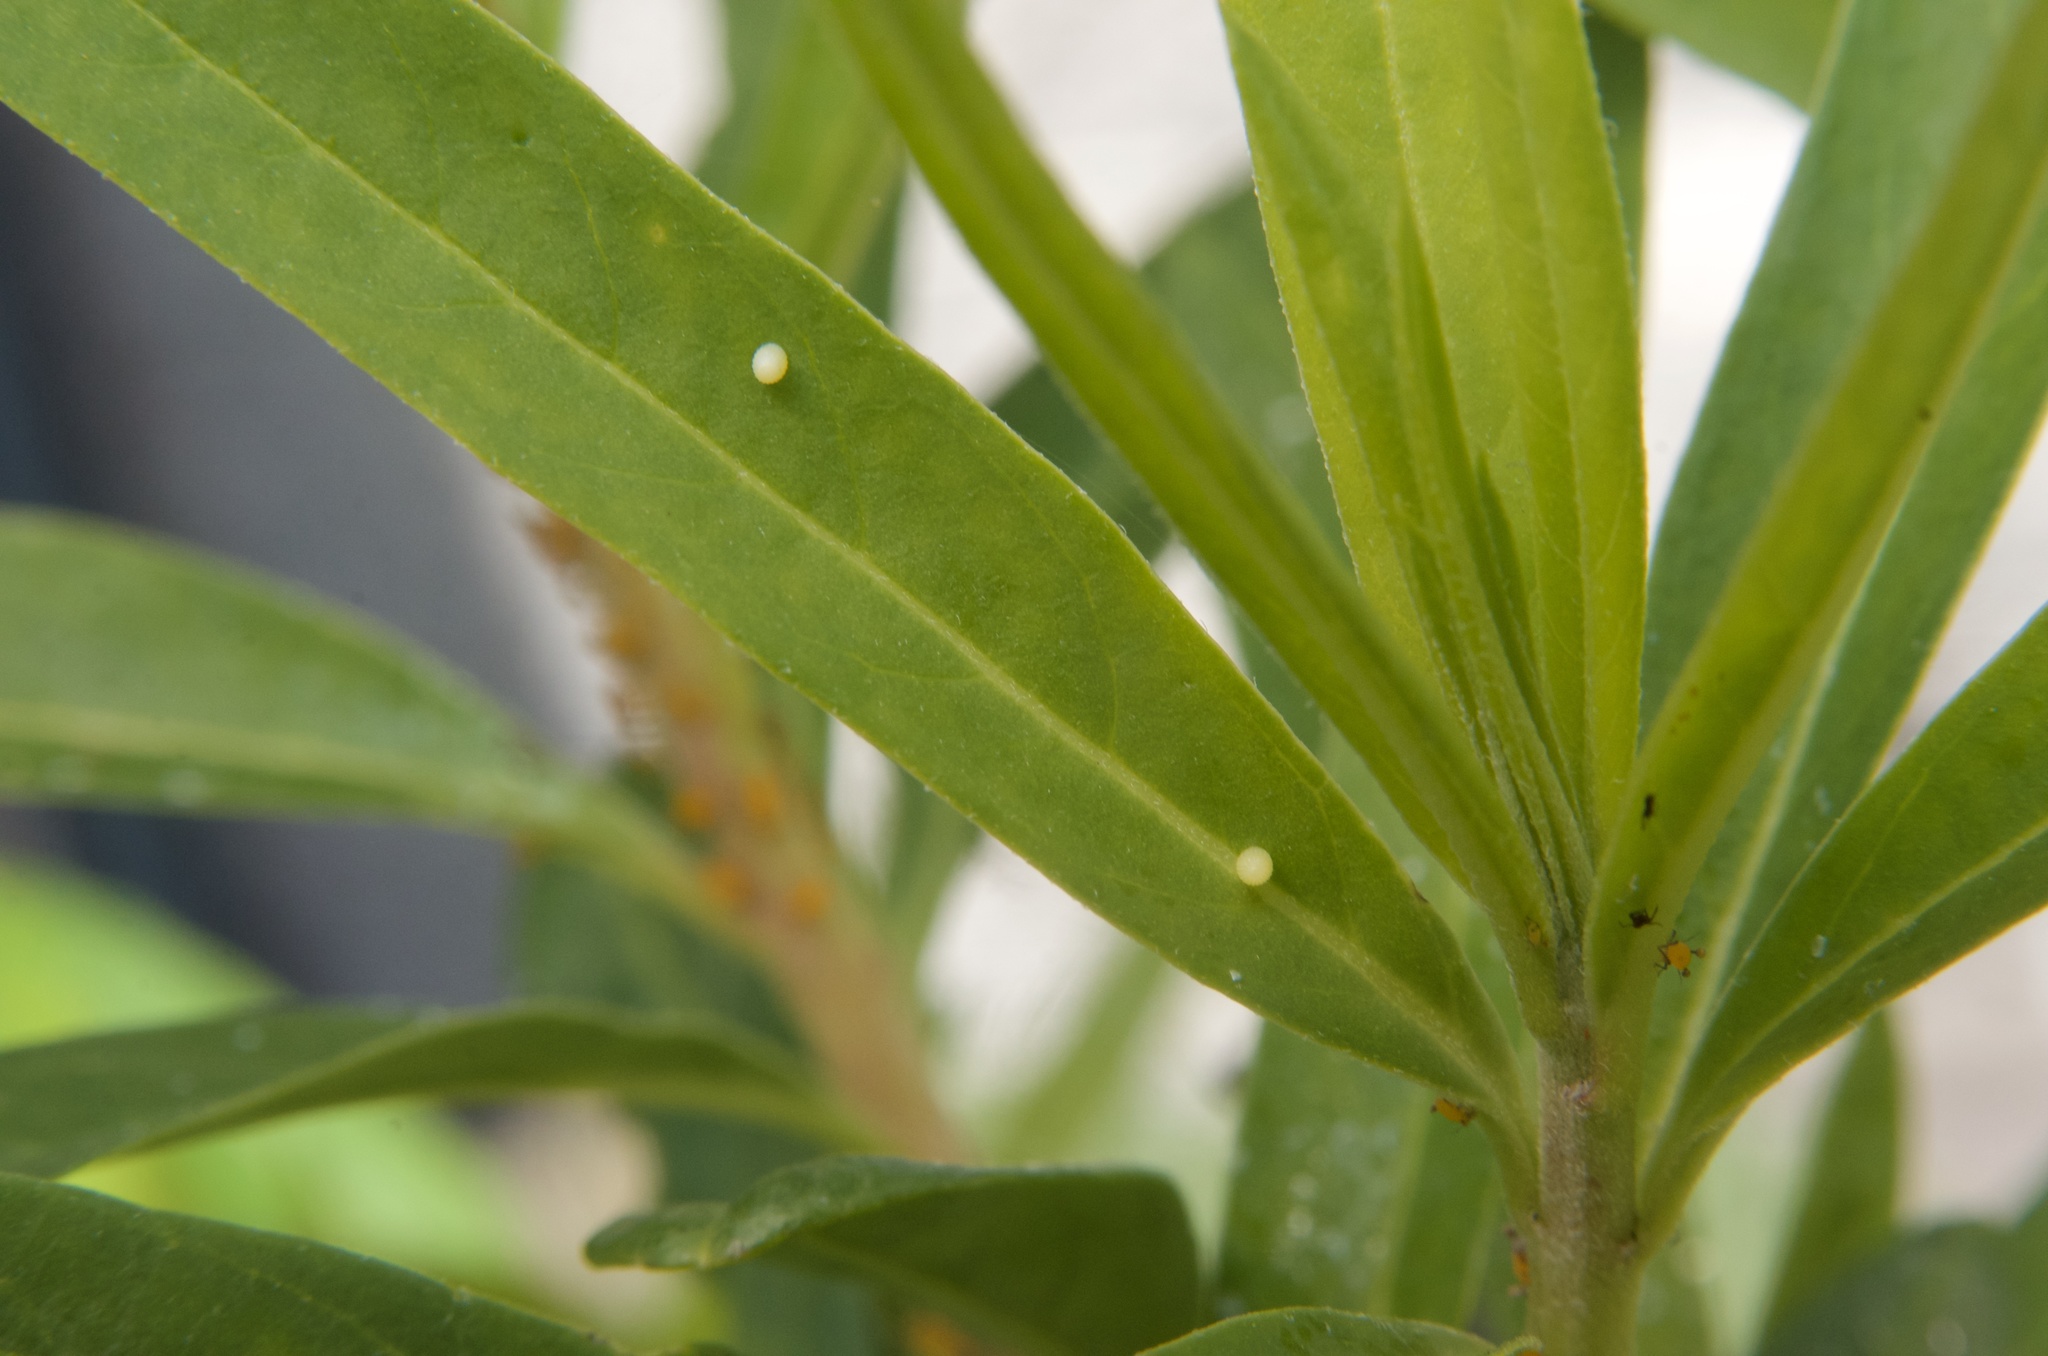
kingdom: Animalia
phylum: Arthropoda
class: Insecta
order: Lepidoptera
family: Nymphalidae
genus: Danaus
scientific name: Danaus plexippus
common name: Monarch
